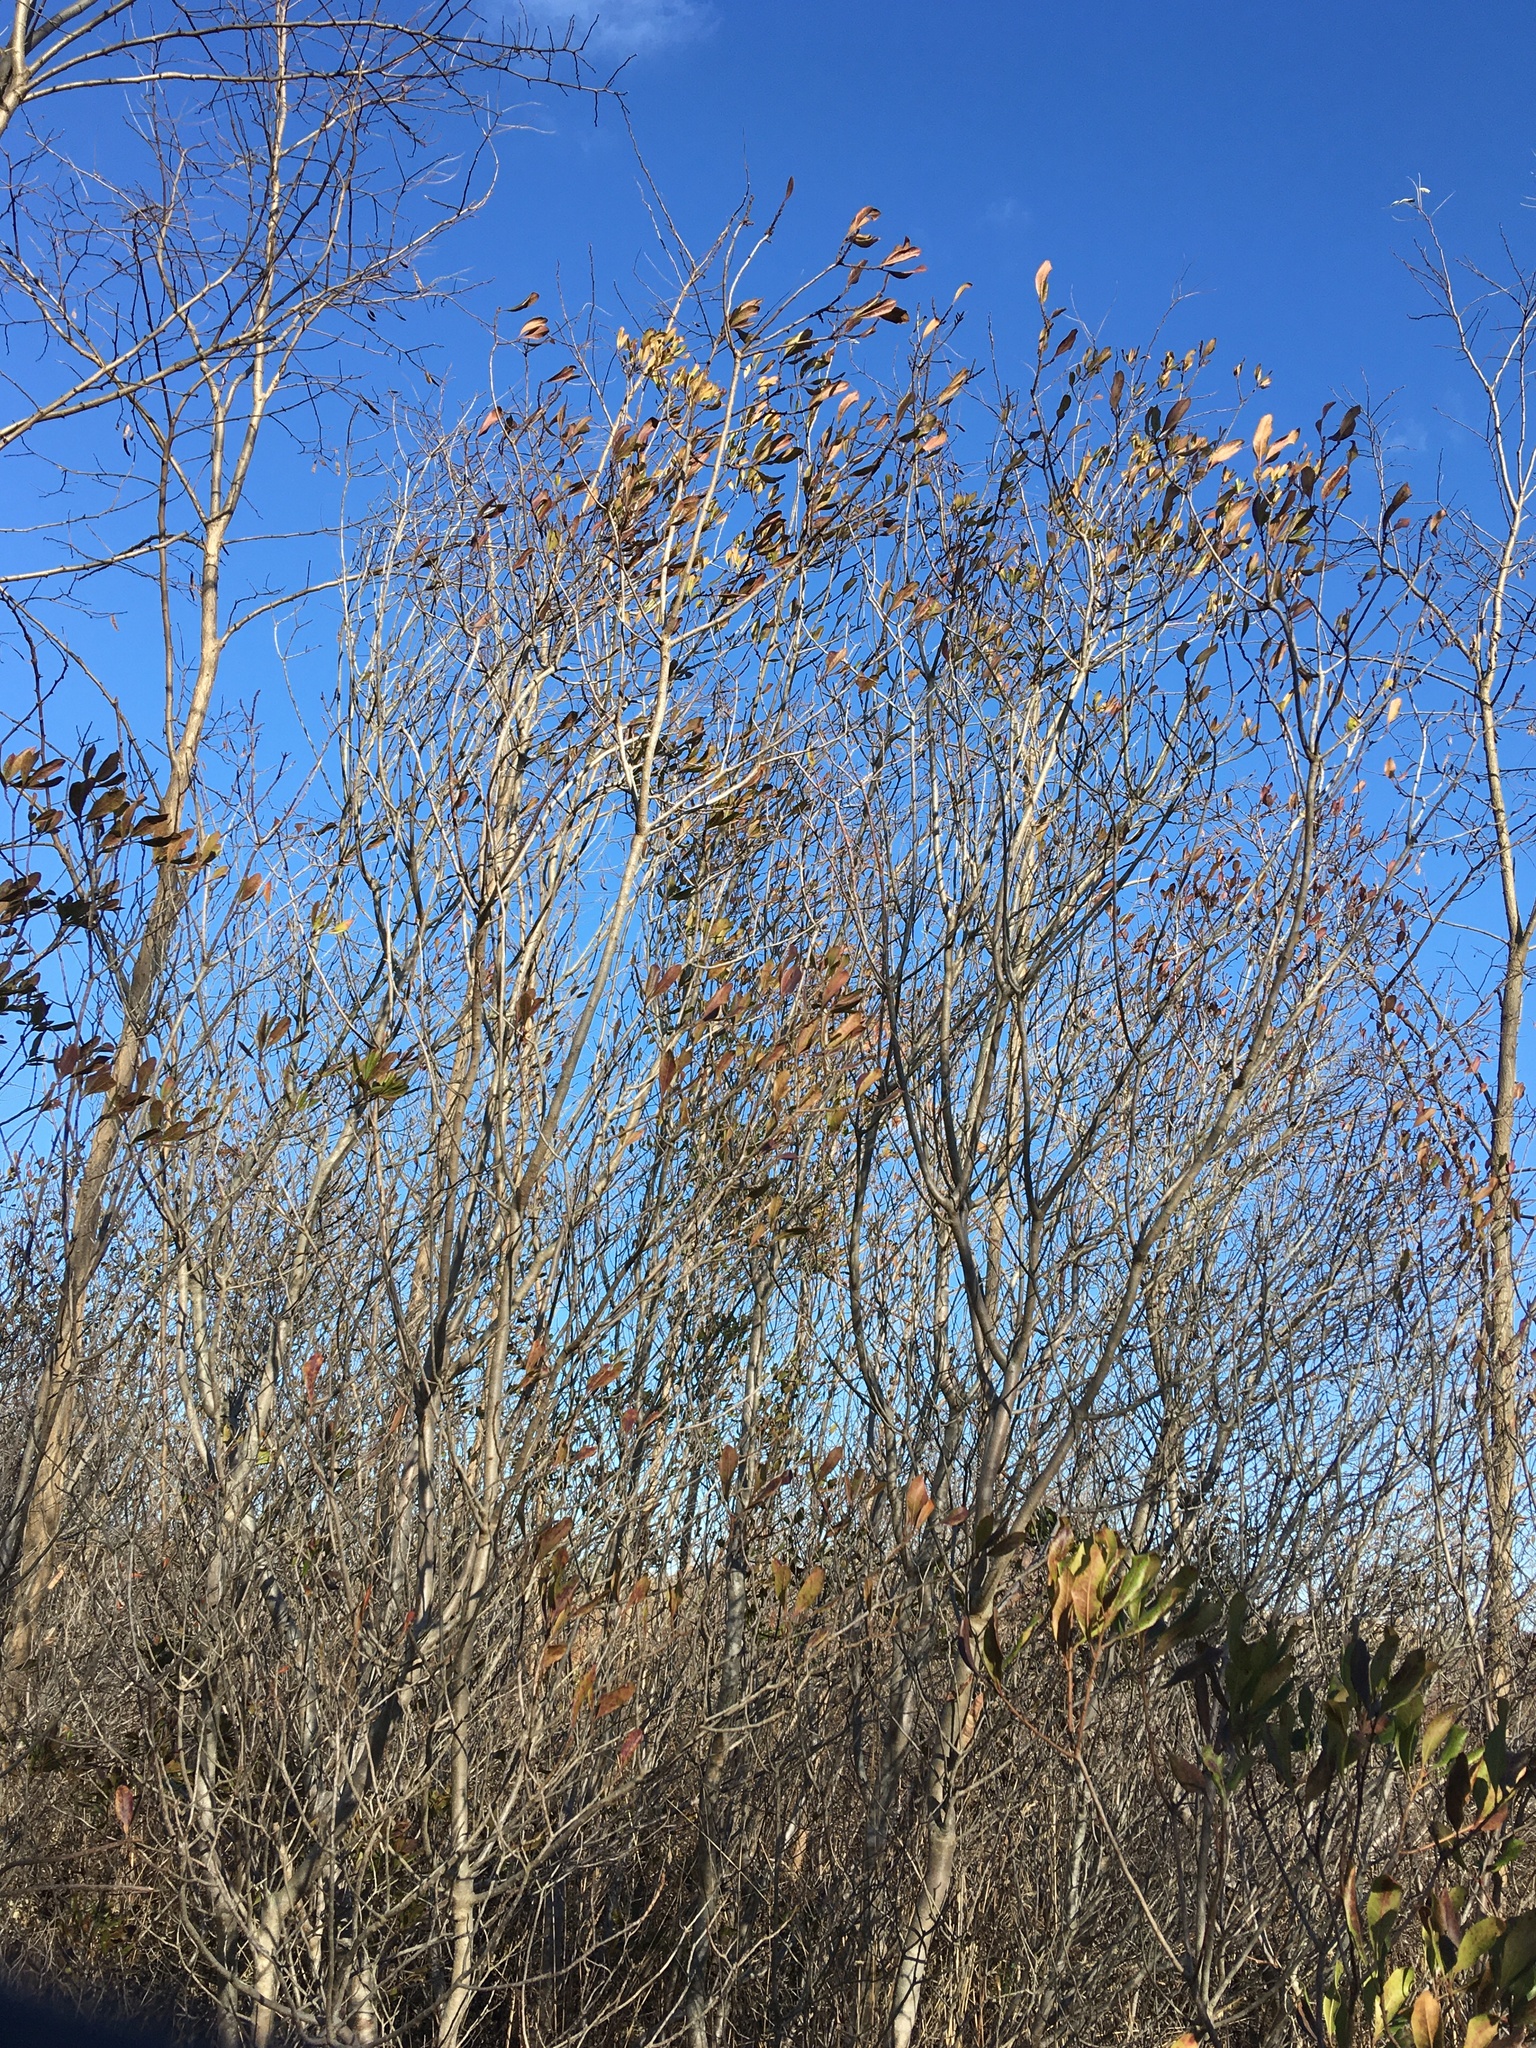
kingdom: Plantae
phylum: Tracheophyta
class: Magnoliopsida
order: Asterales
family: Asteraceae
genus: Baccharis
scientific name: Baccharis halimifolia
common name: Eastern baccharis
